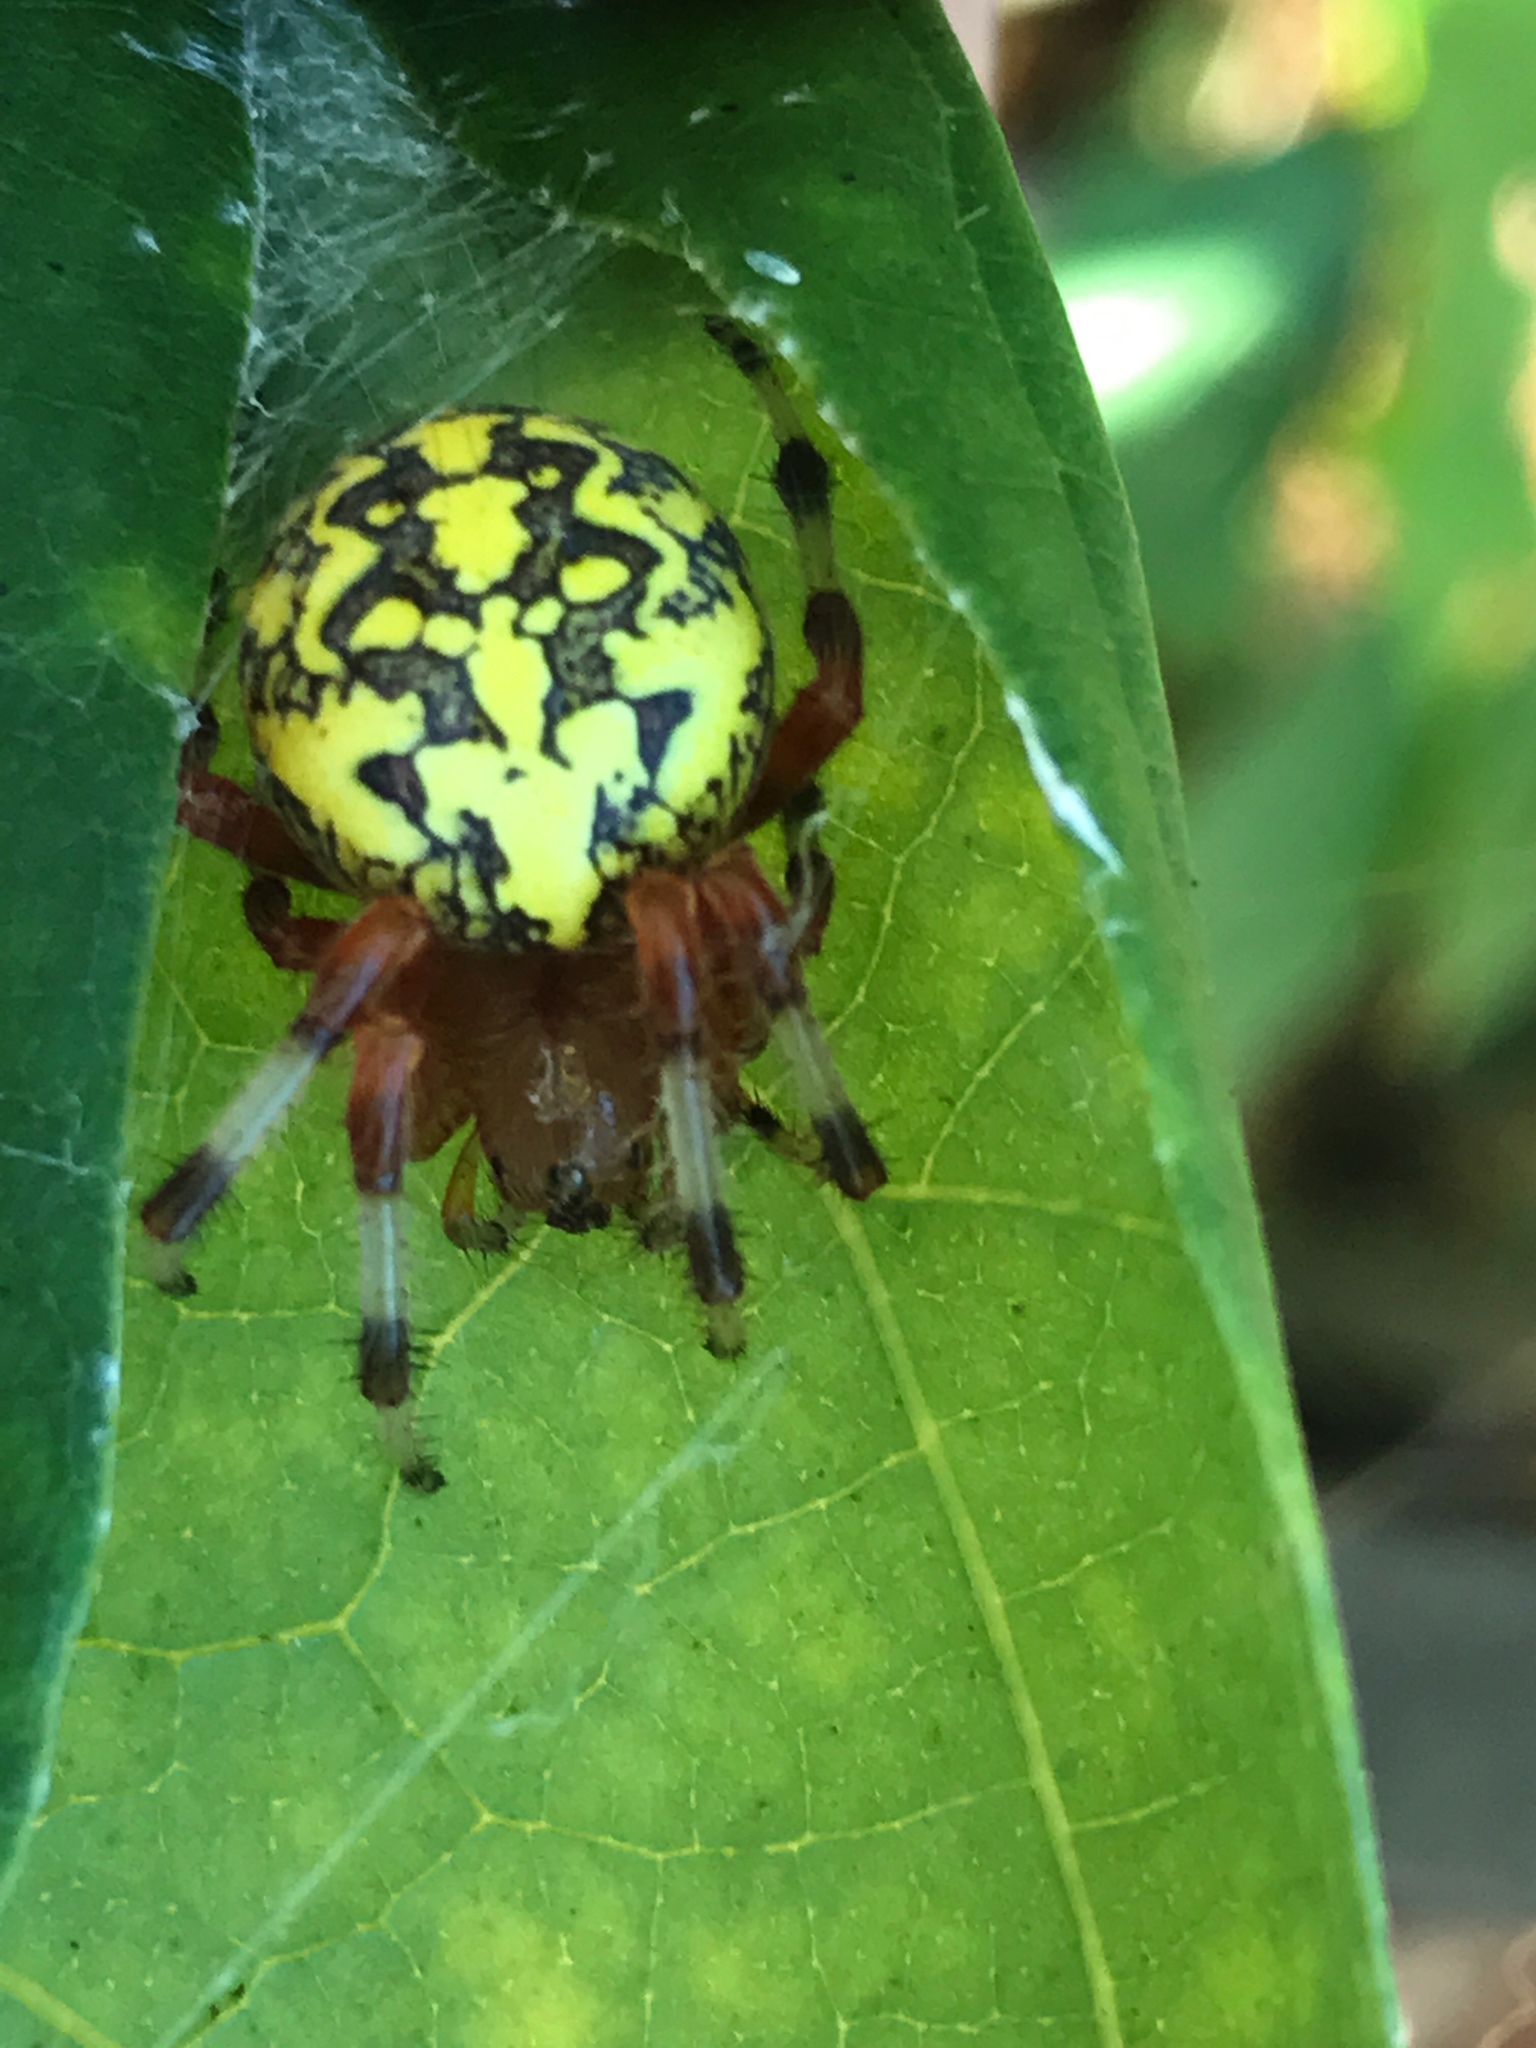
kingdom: Animalia
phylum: Arthropoda
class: Arachnida
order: Araneae
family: Araneidae
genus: Araneus
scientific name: Araneus marmoreus
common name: Marbled orbweaver
